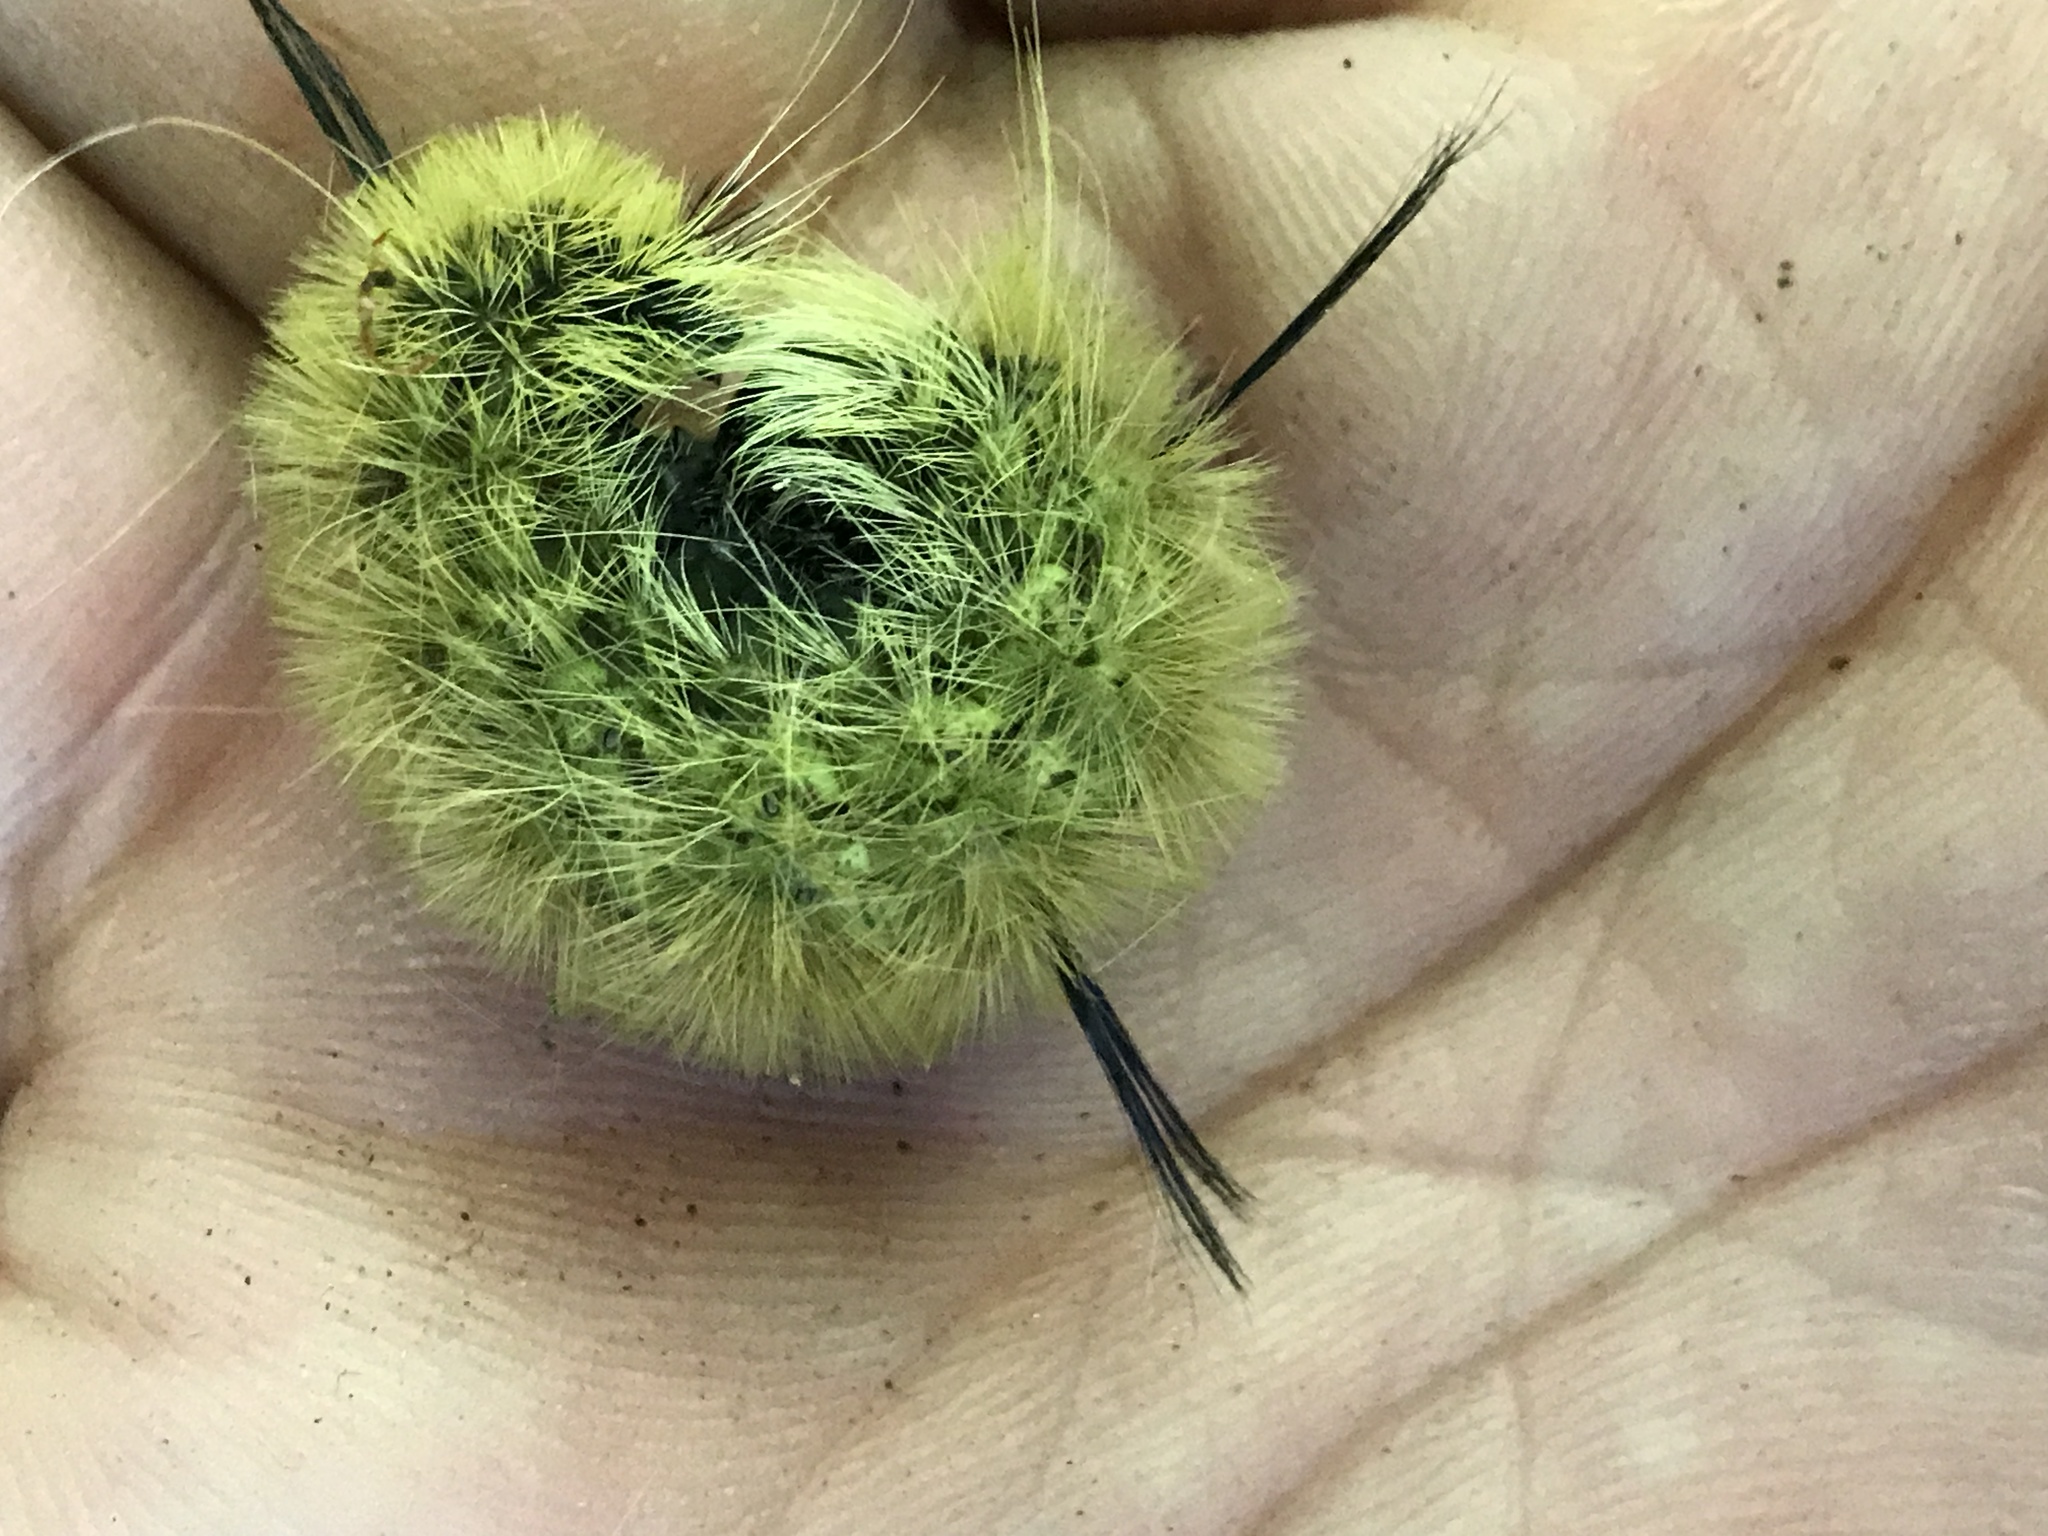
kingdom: Animalia
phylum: Arthropoda
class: Insecta
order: Lepidoptera
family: Noctuidae
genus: Acronicta
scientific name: Acronicta americana
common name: American dagger
